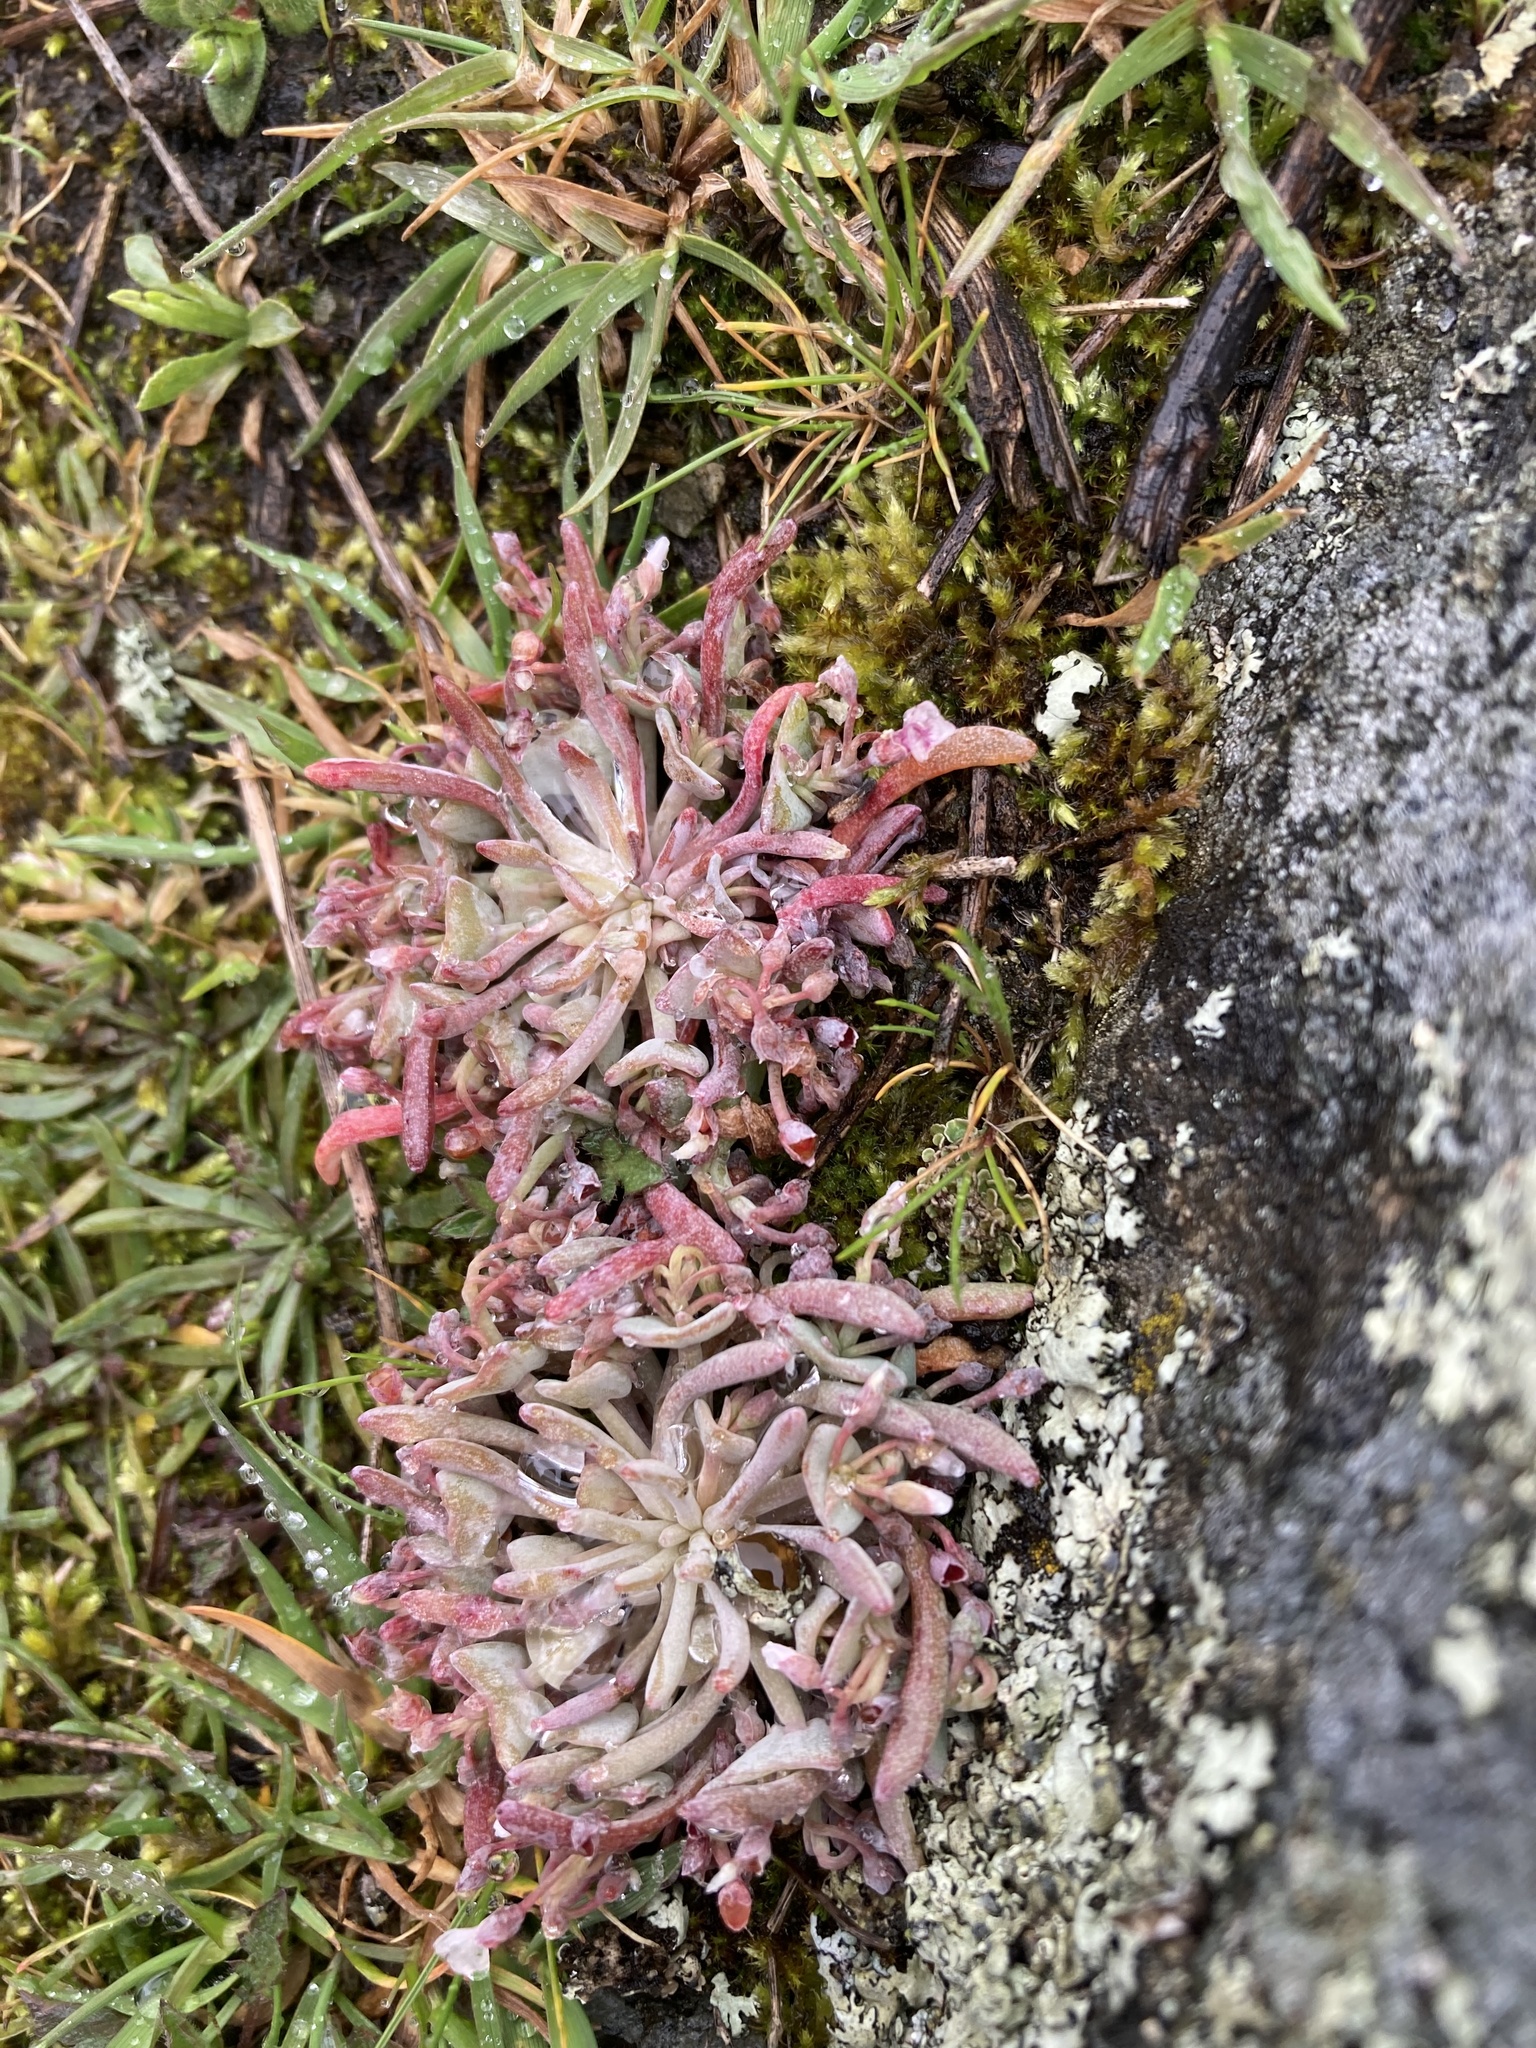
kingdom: Plantae
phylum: Tracheophyta
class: Magnoliopsida
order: Caryophyllales
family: Montiaceae
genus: Claytonia
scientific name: Claytonia exigua
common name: Pale spring beauty
